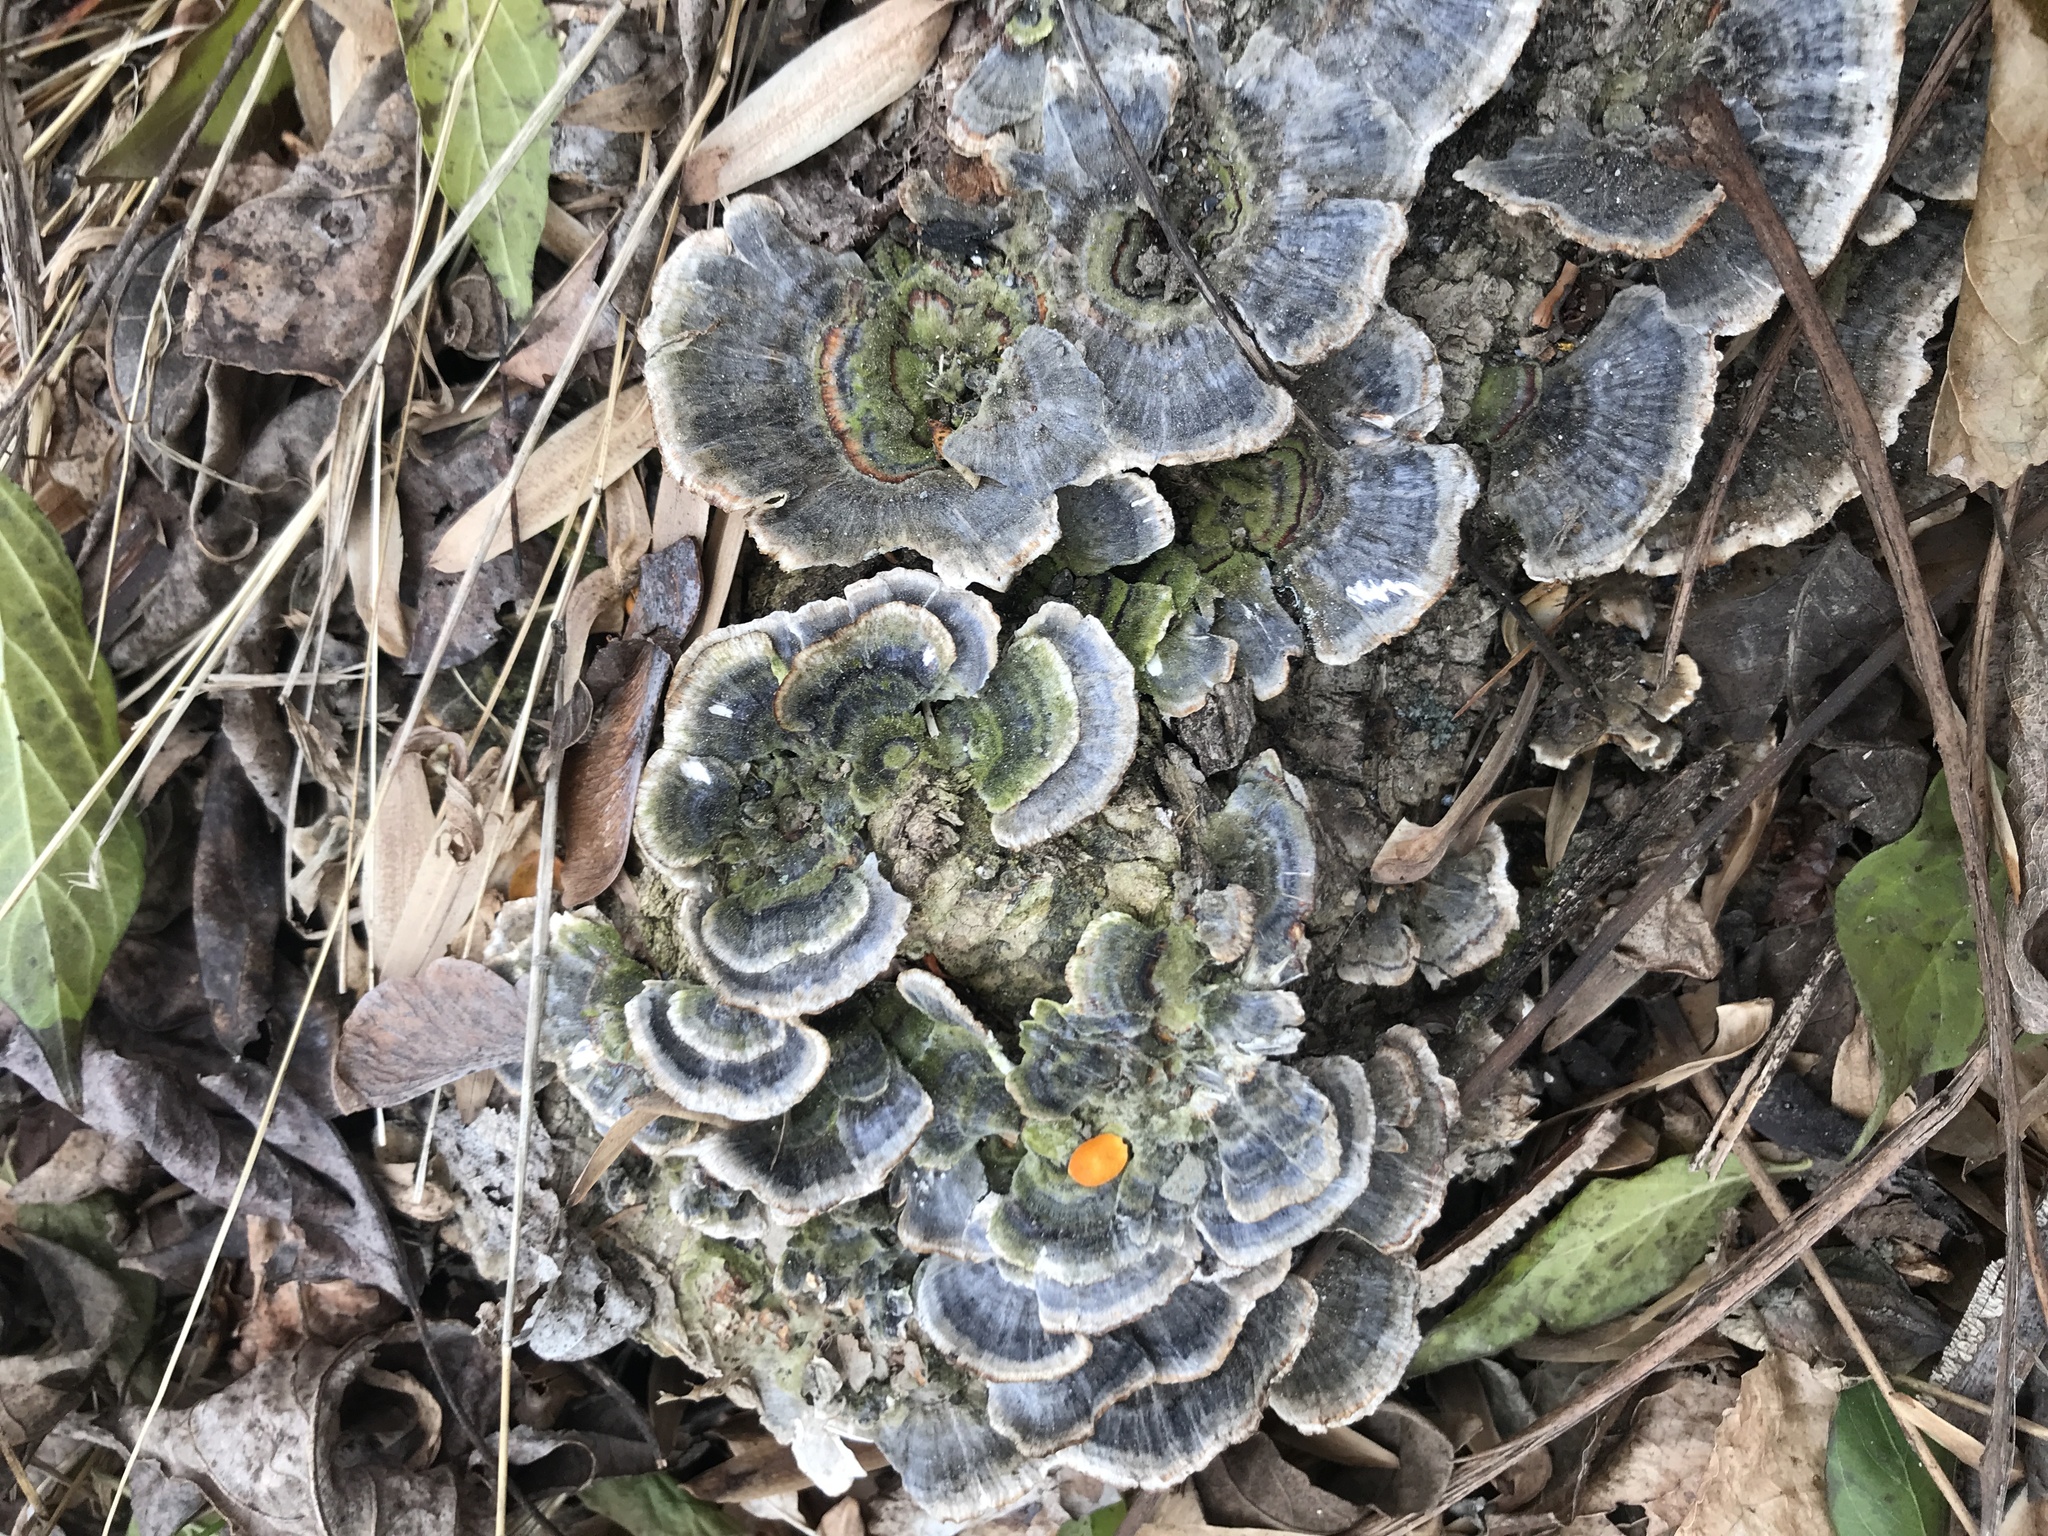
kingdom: Fungi
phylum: Basidiomycota
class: Agaricomycetes
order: Polyporales
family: Polyporaceae
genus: Trametes
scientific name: Trametes versicolor
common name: Turkeytail
